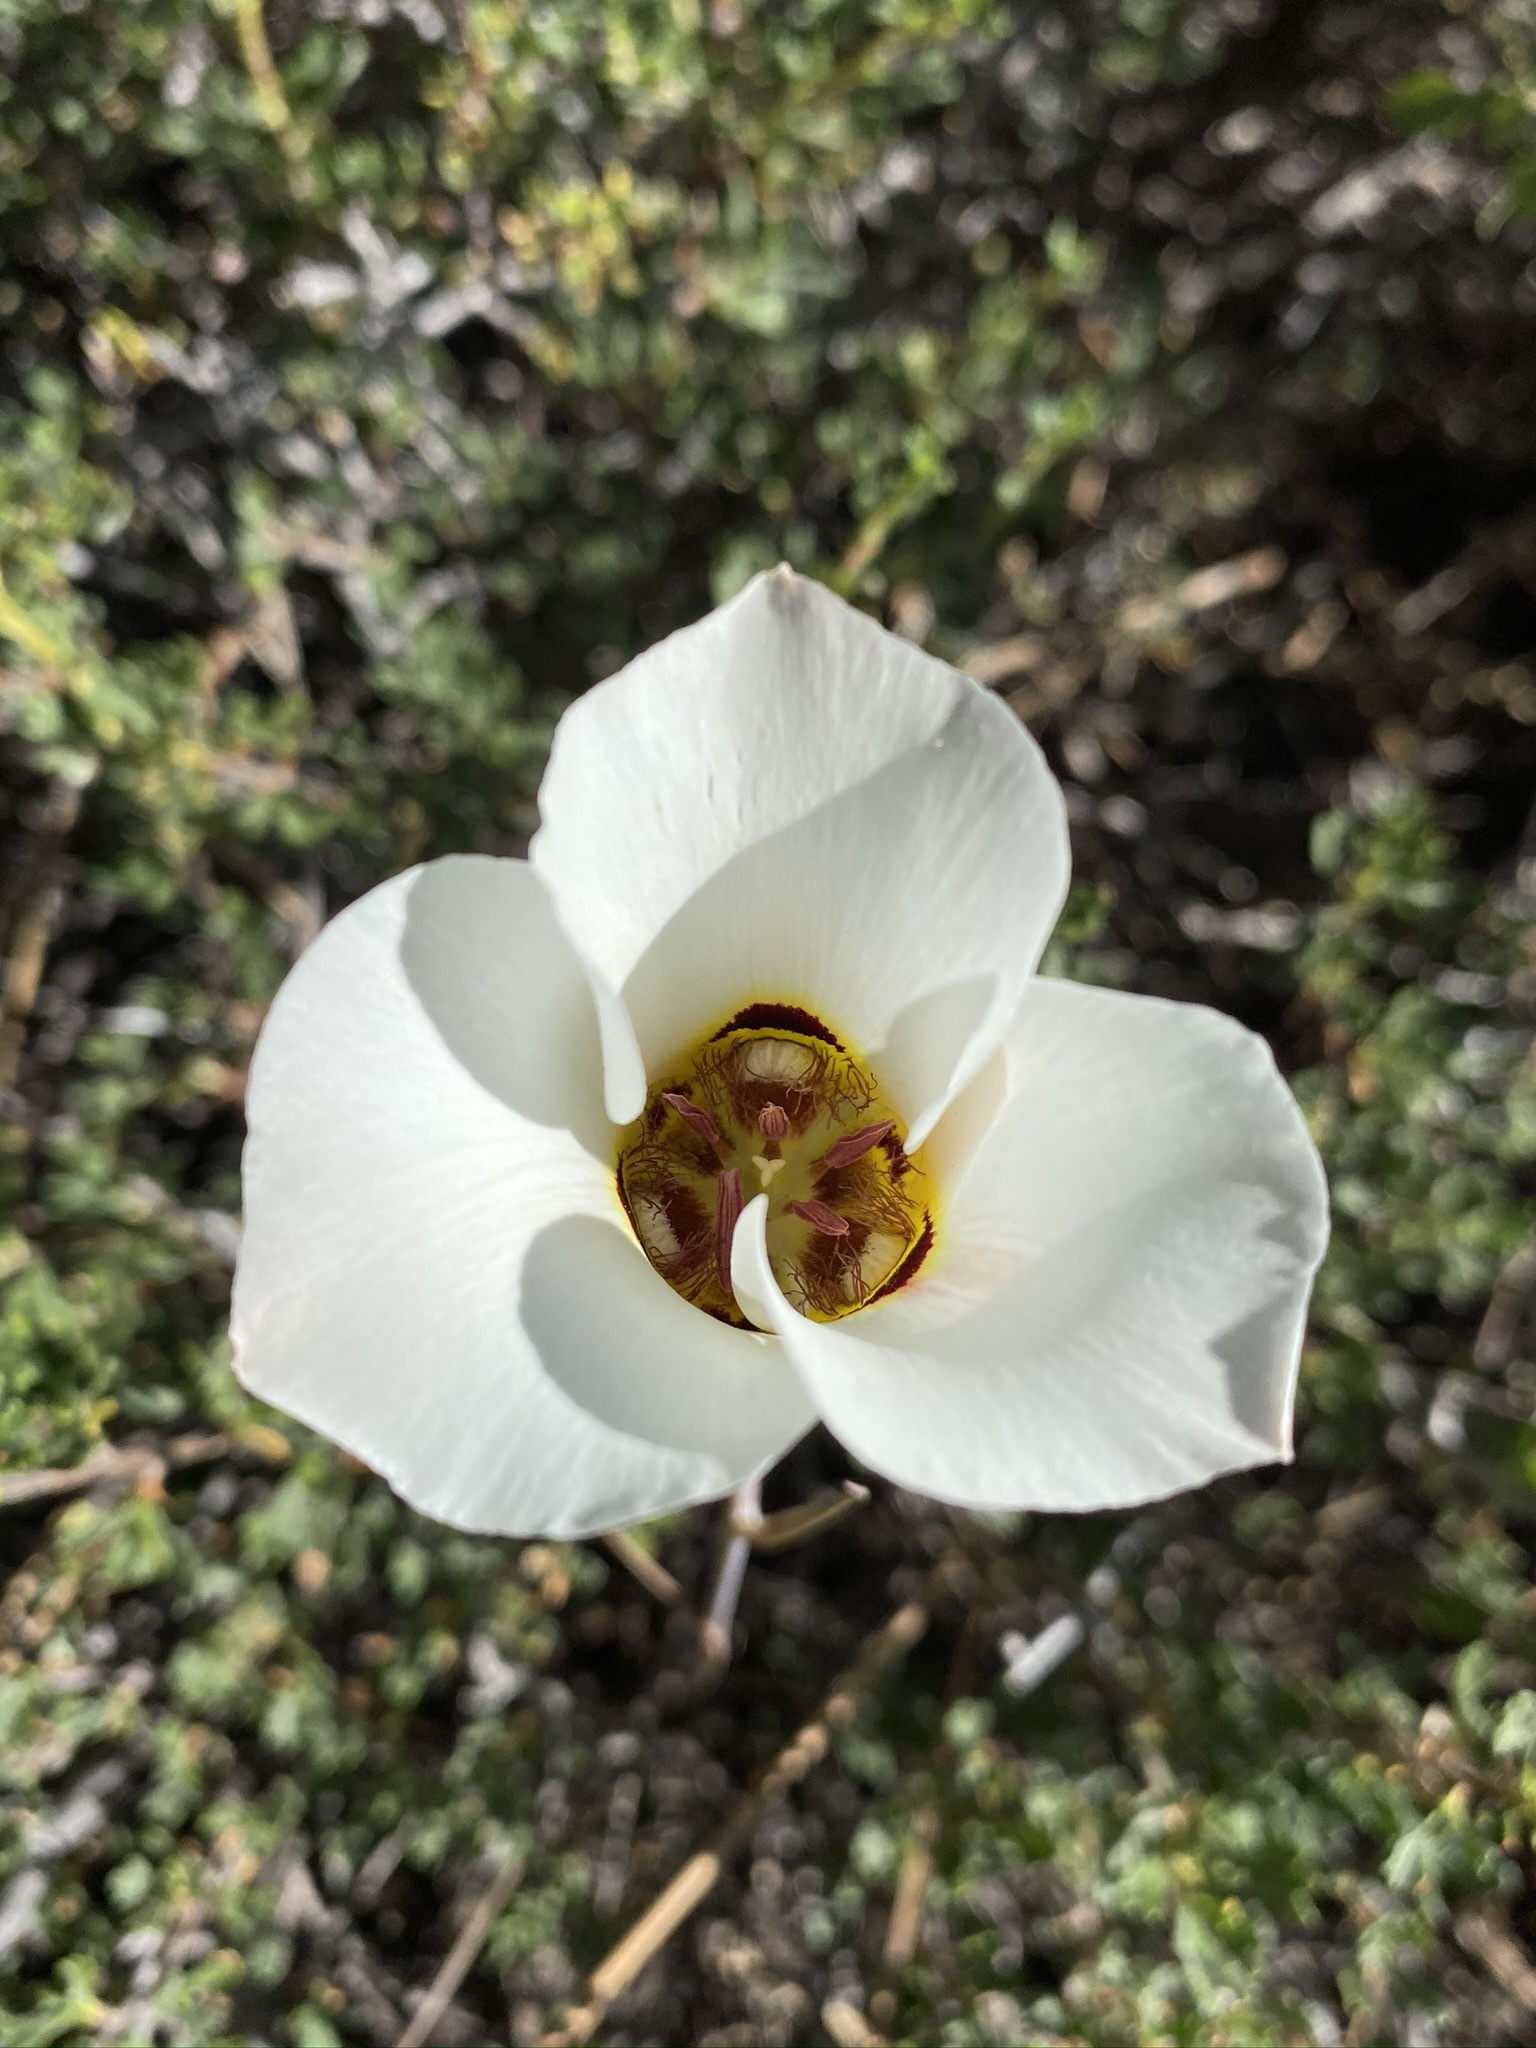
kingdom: Plantae
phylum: Tracheophyta
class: Liliopsida
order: Liliales
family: Liliaceae
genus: Calochortus
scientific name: Calochortus nuttallii
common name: Sego-lily
